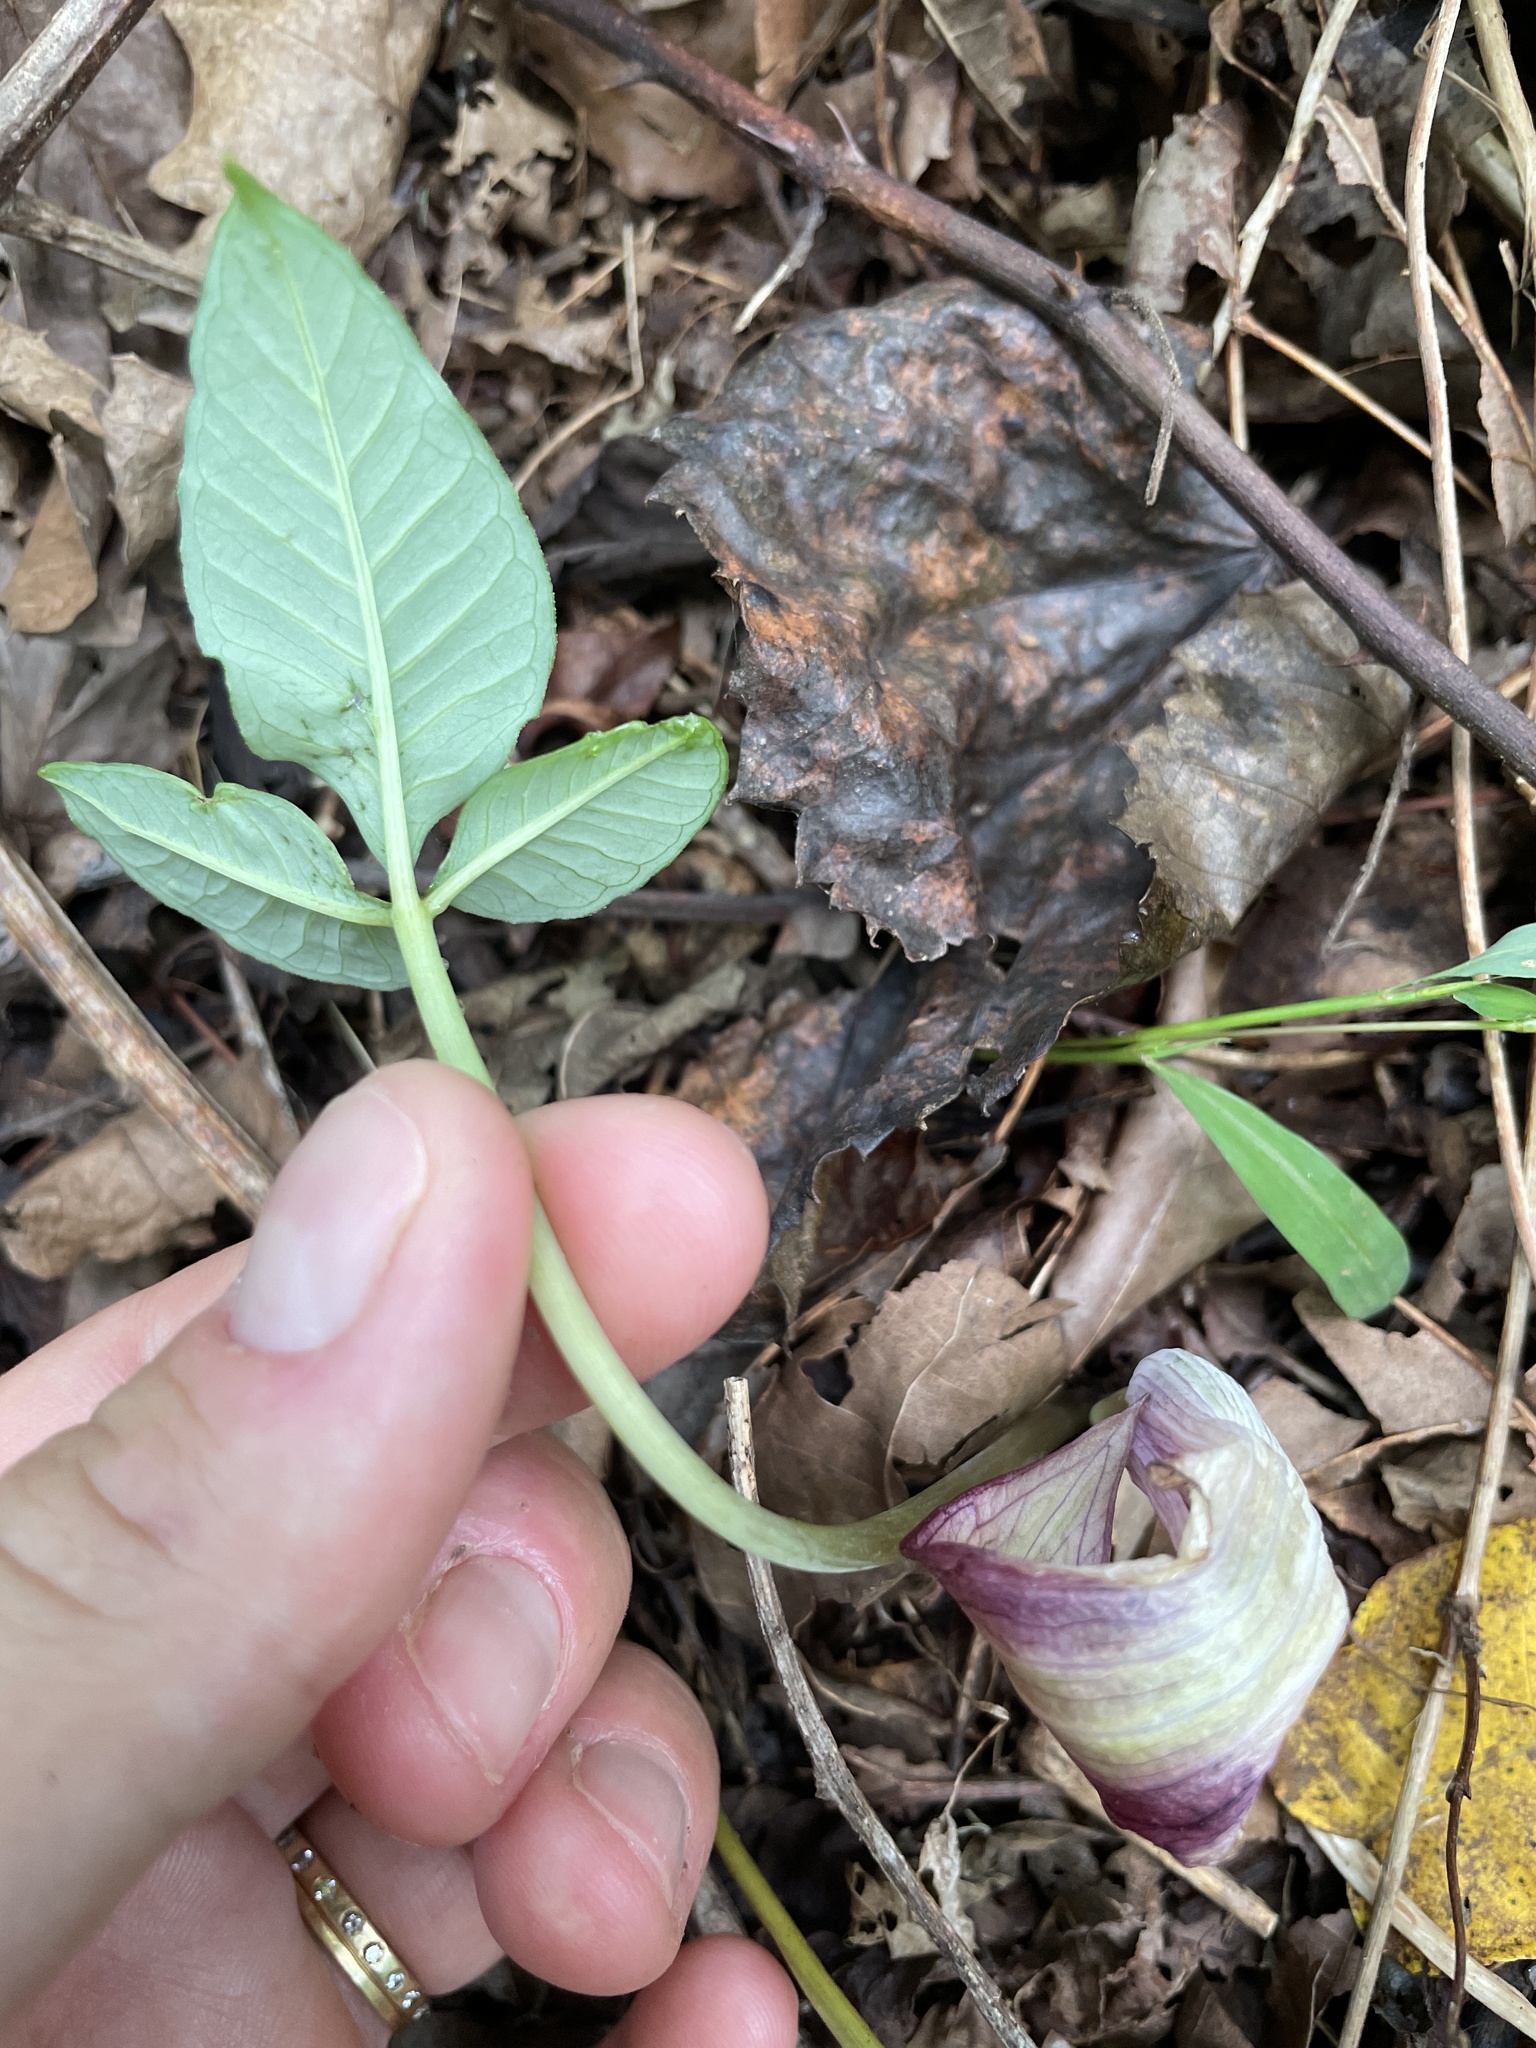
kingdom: Plantae
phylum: Tracheophyta
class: Liliopsida
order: Alismatales
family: Araceae
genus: Arisaema
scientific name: Arisaema triphyllum
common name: Jack-in-the-pulpit
